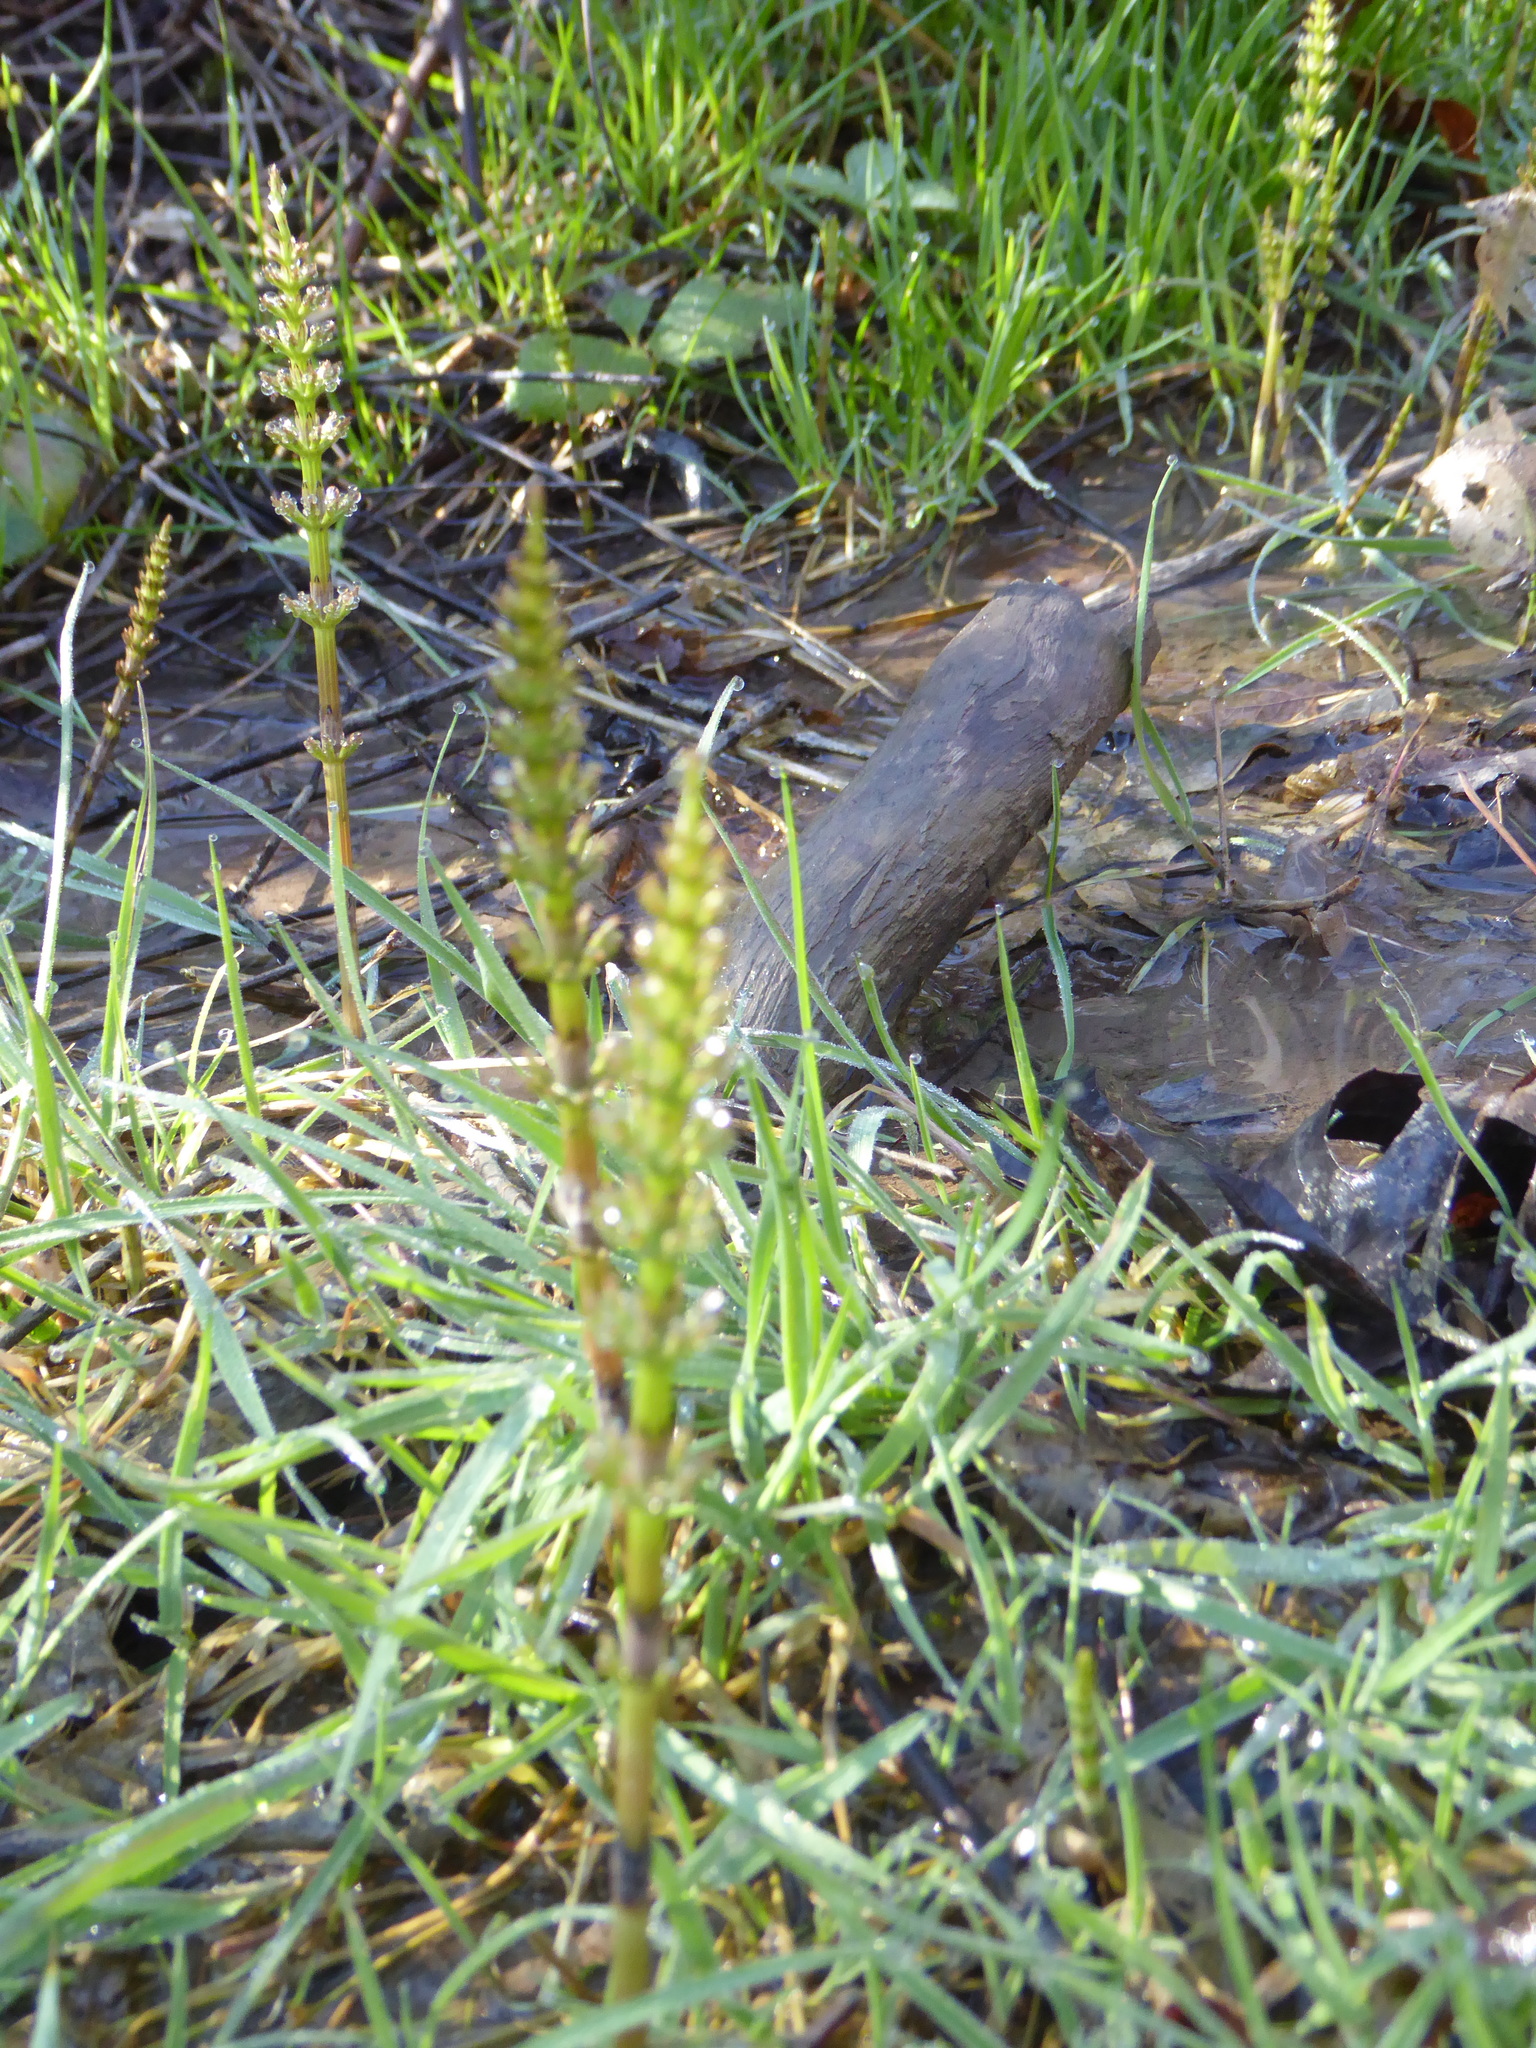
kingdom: Plantae
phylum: Tracheophyta
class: Polypodiopsida
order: Equisetales
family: Equisetaceae
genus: Equisetum
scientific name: Equisetum arvense
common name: Field horsetail
